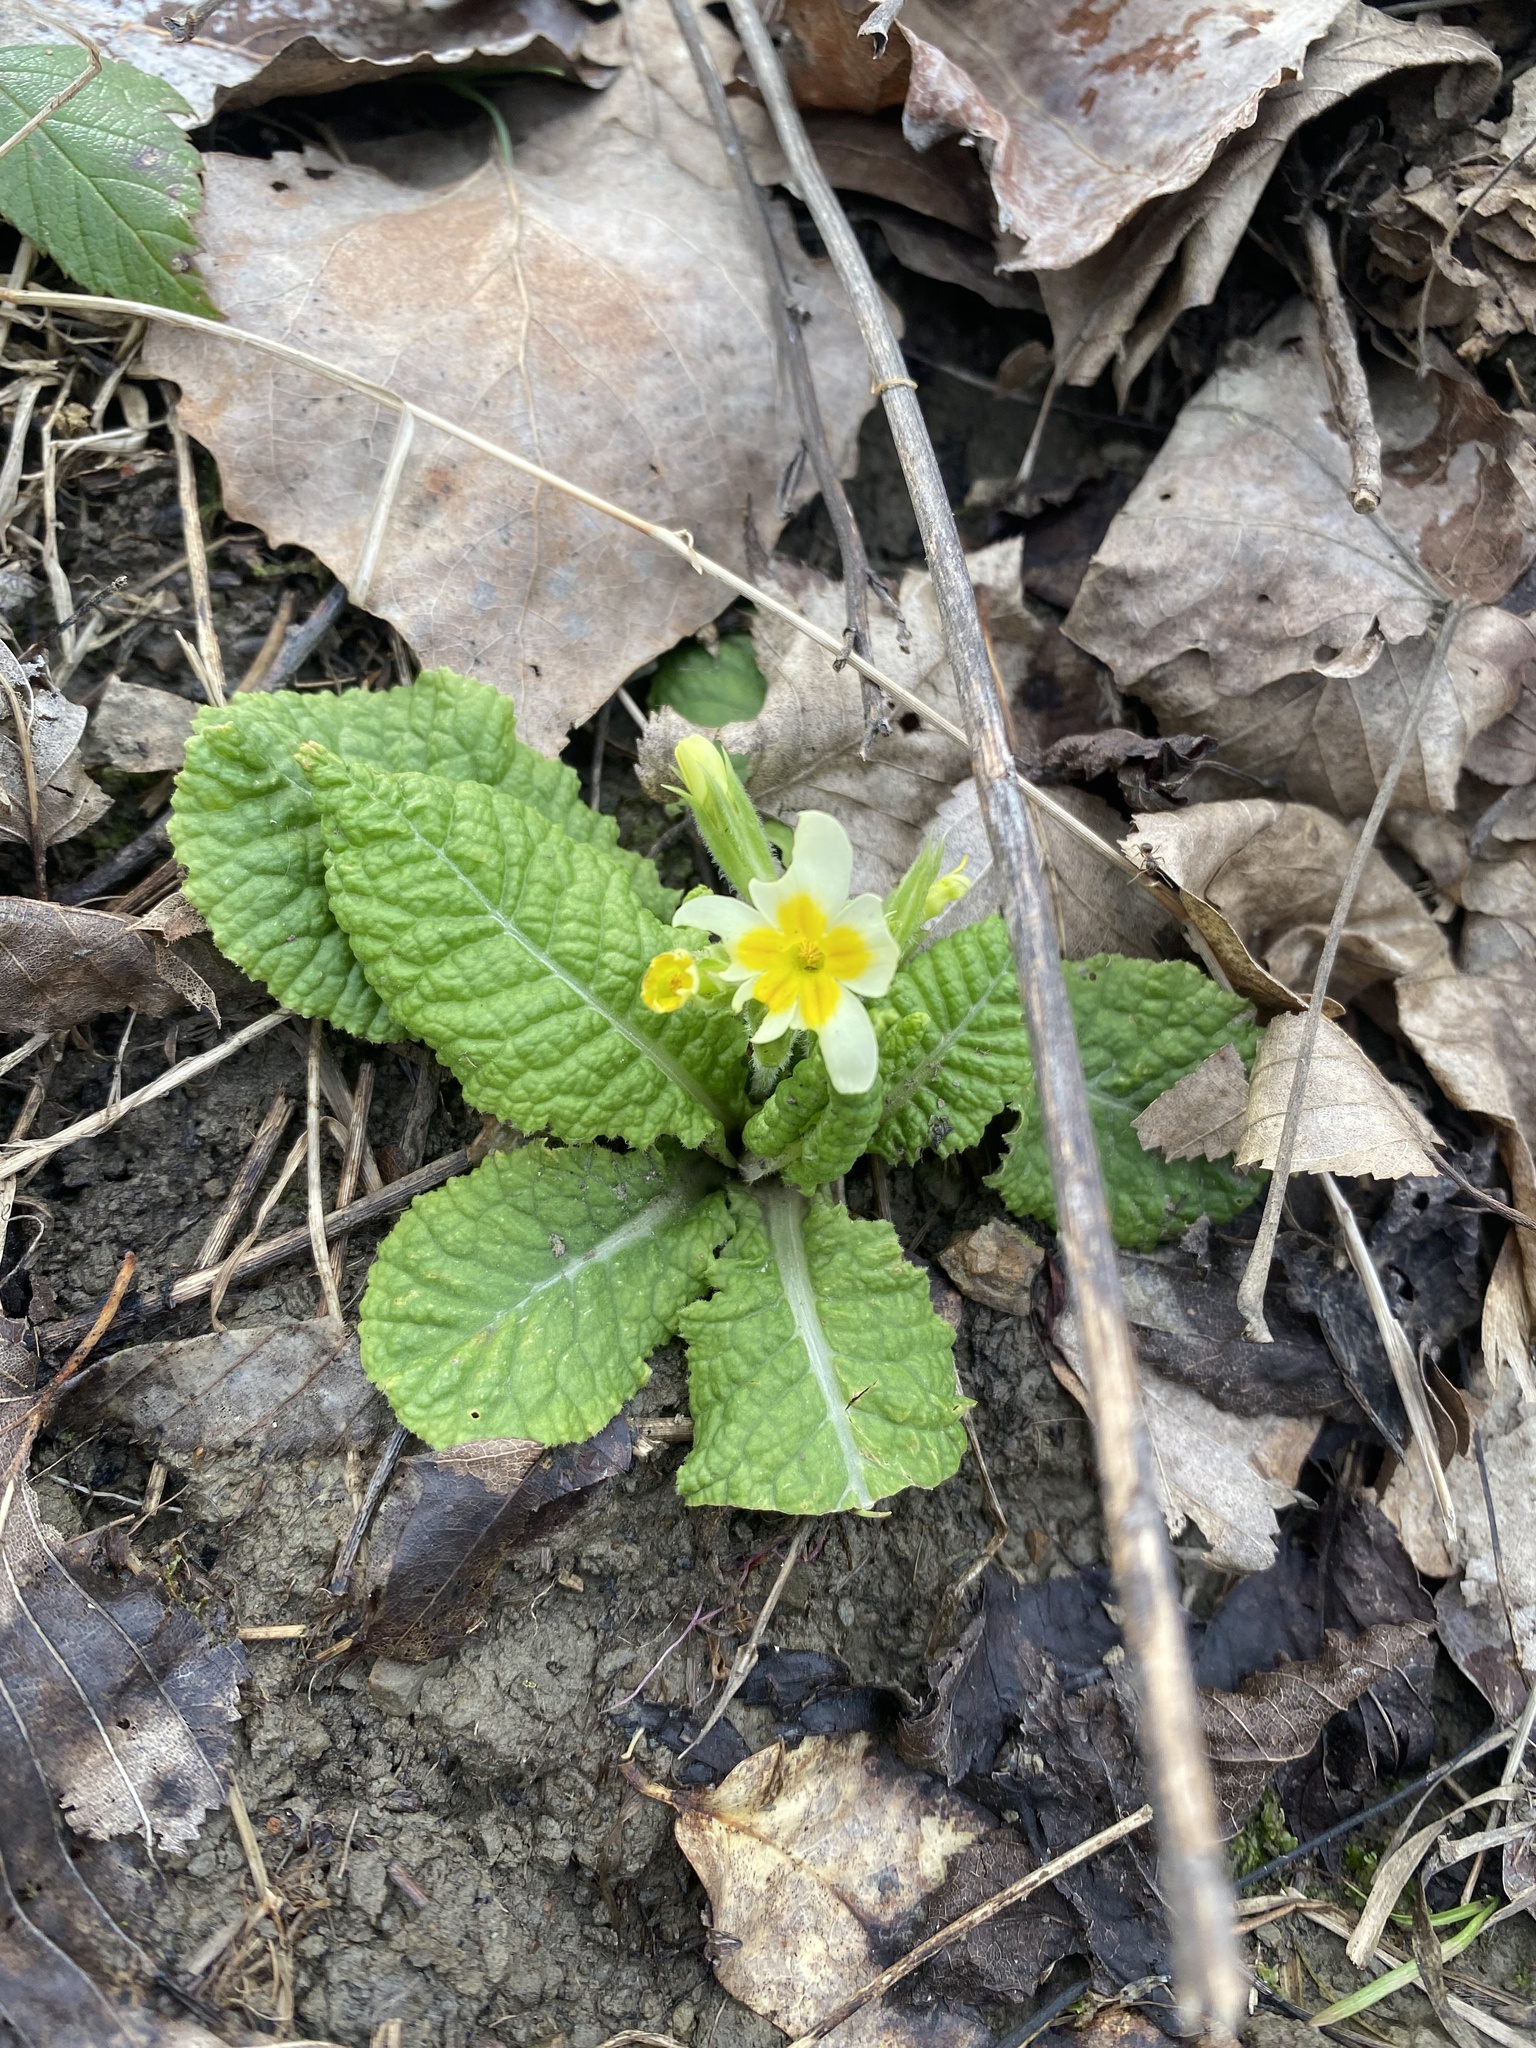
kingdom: Plantae
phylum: Tracheophyta
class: Magnoliopsida
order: Ericales
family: Primulaceae
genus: Primula
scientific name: Primula vulgaris
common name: Primrose
